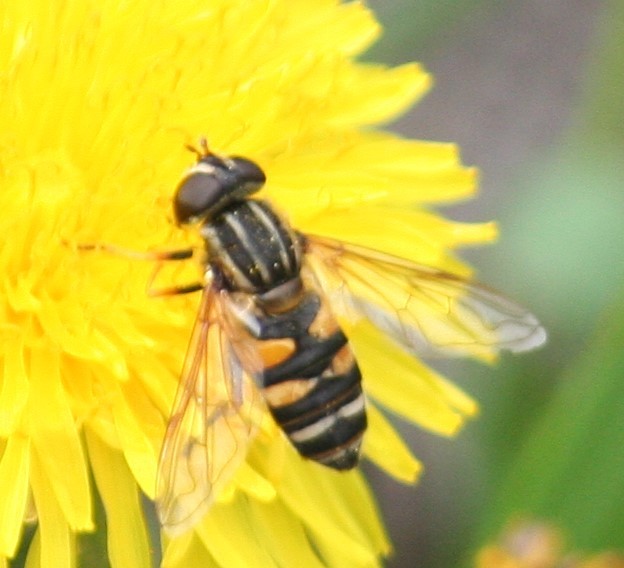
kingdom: Animalia
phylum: Arthropoda
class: Insecta
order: Diptera
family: Syrphidae
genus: Helophilus
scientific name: Helophilus fasciatus
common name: Narrow-headed marsh fly
